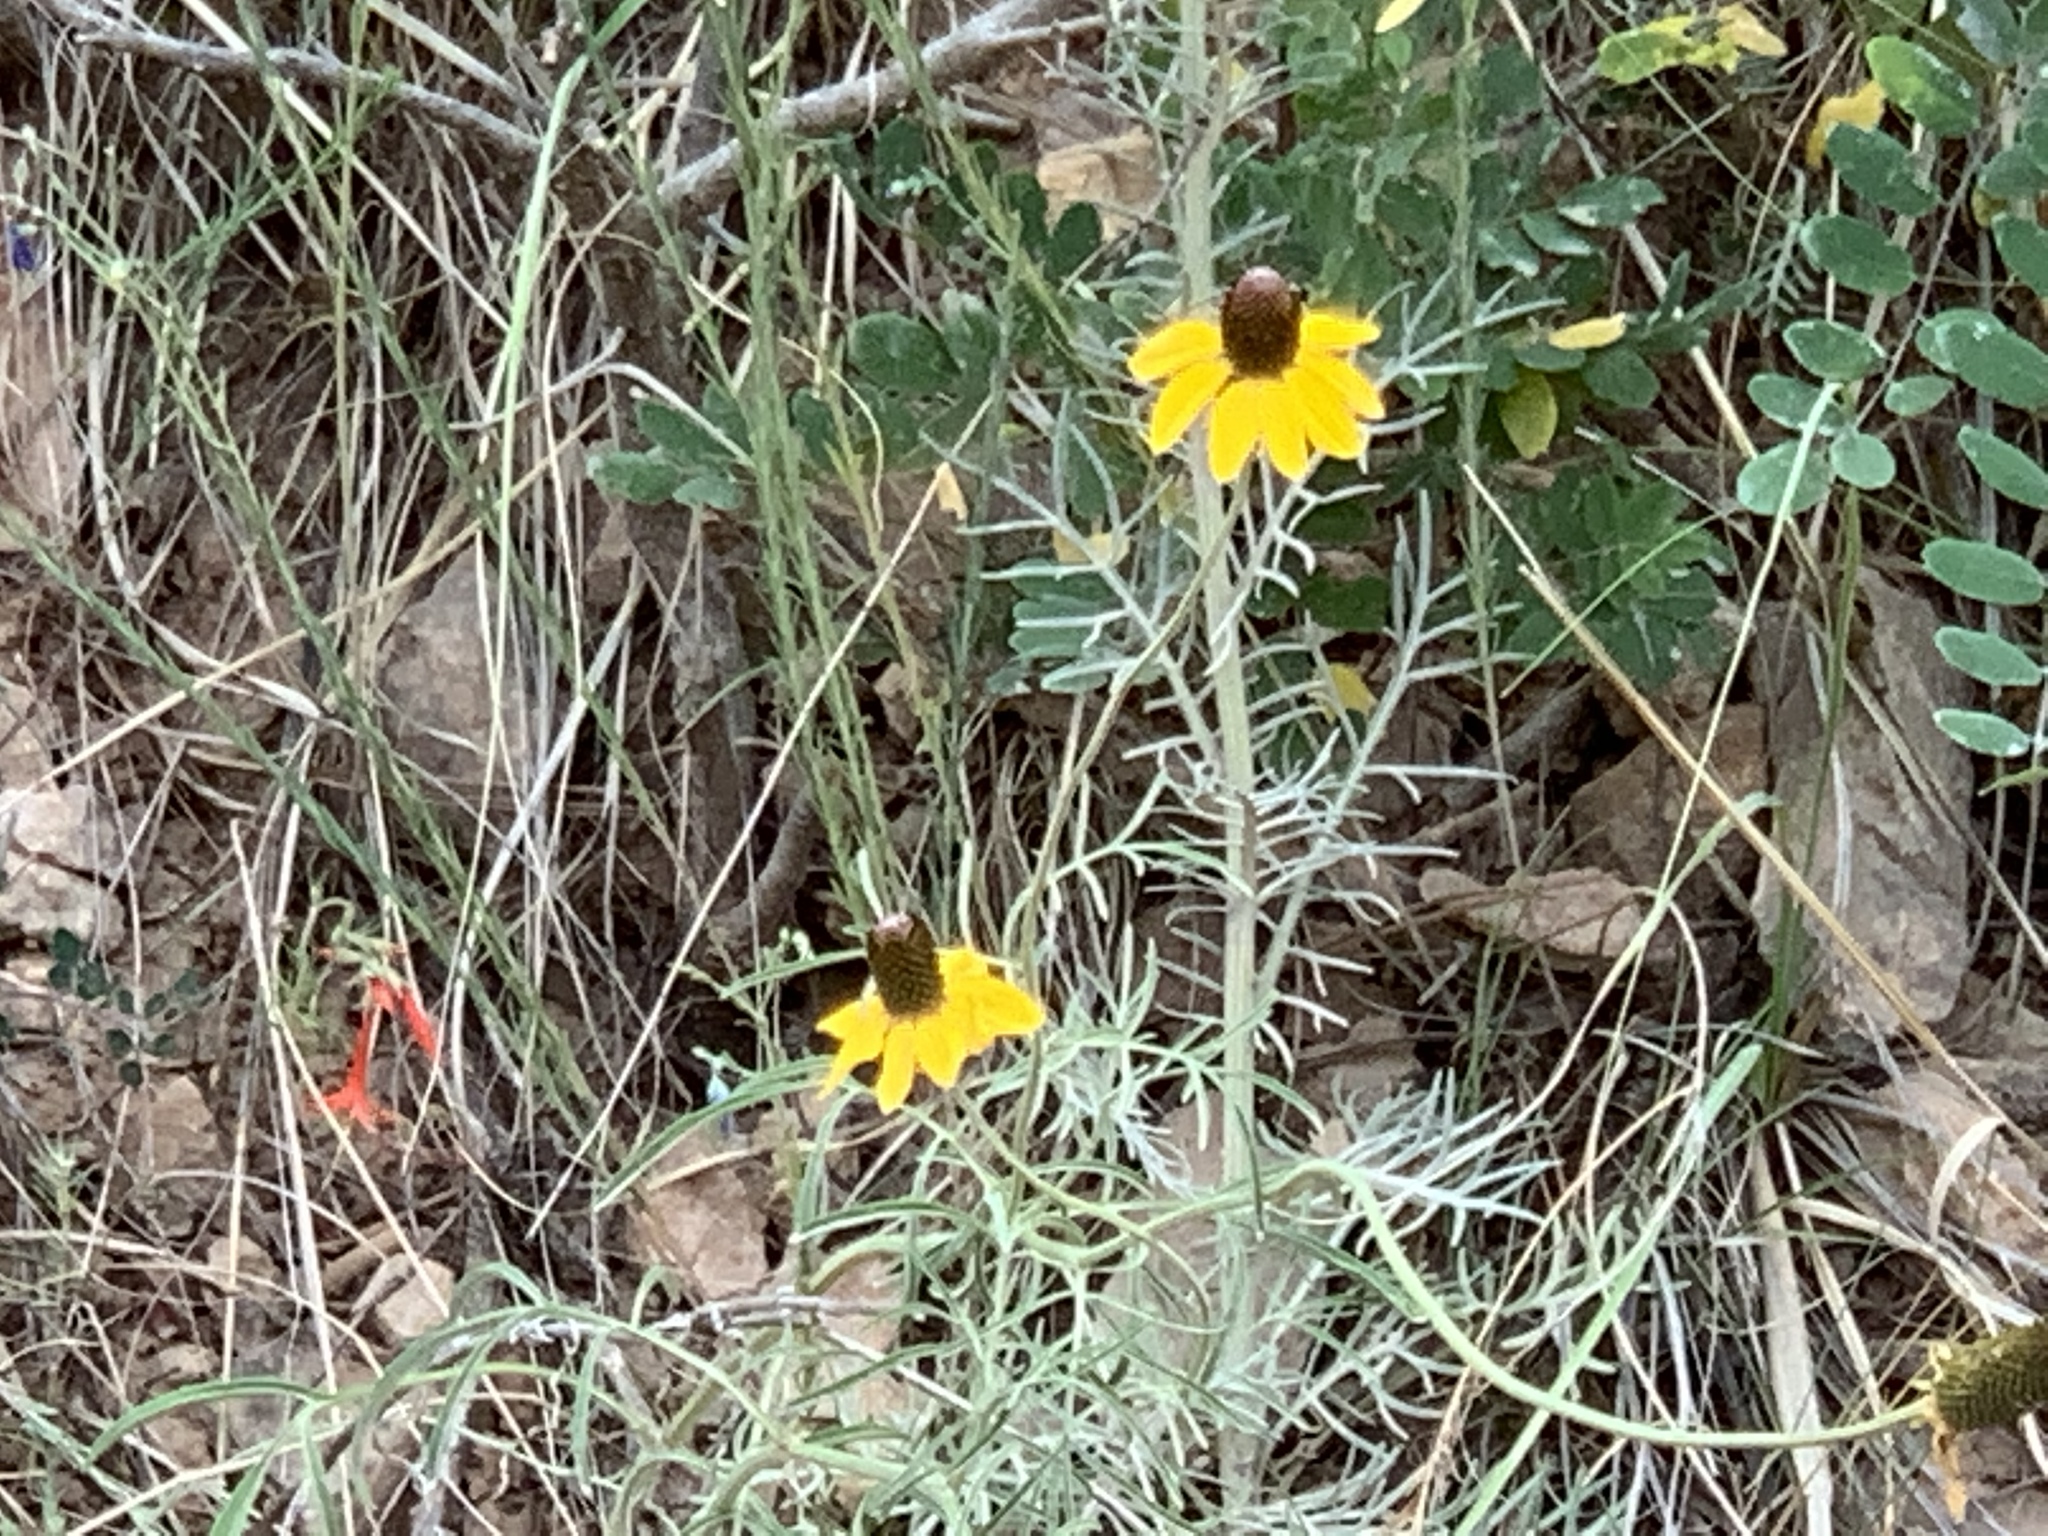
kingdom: Plantae
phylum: Tracheophyta
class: Magnoliopsida
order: Asterales
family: Asteraceae
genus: Ratibida
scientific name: Ratibida columnifera
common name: Prairie coneflower
